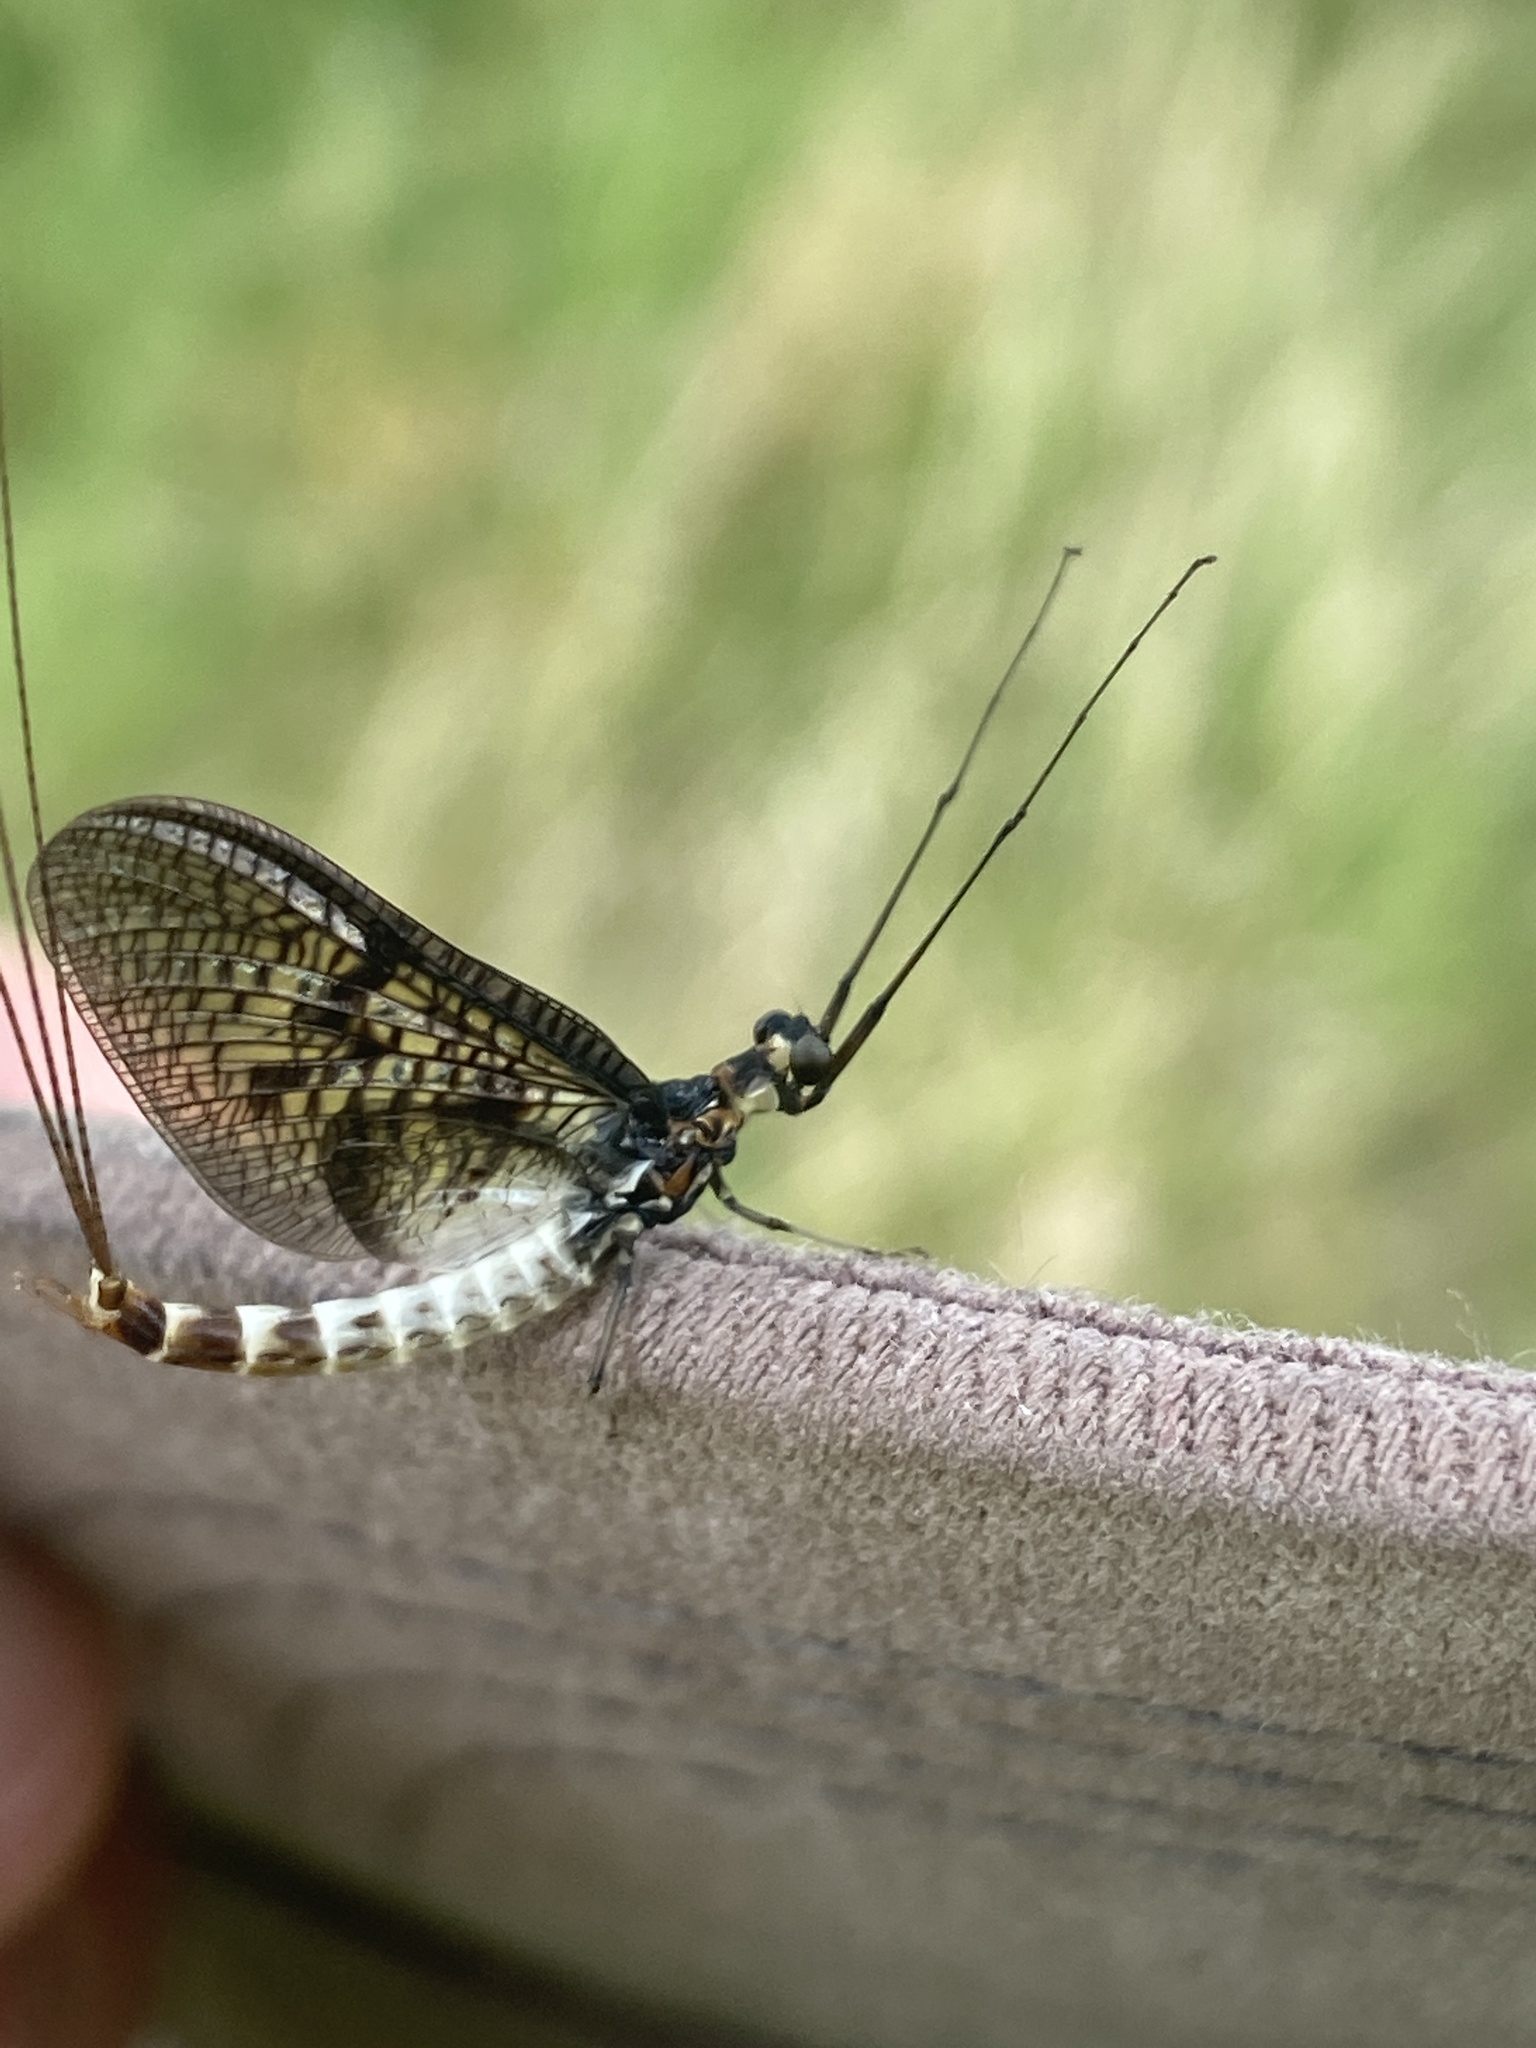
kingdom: Animalia
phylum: Arthropoda
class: Insecta
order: Ephemeroptera
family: Ephemeridae
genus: Ephemera
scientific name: Ephemera danica
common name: Green dun
